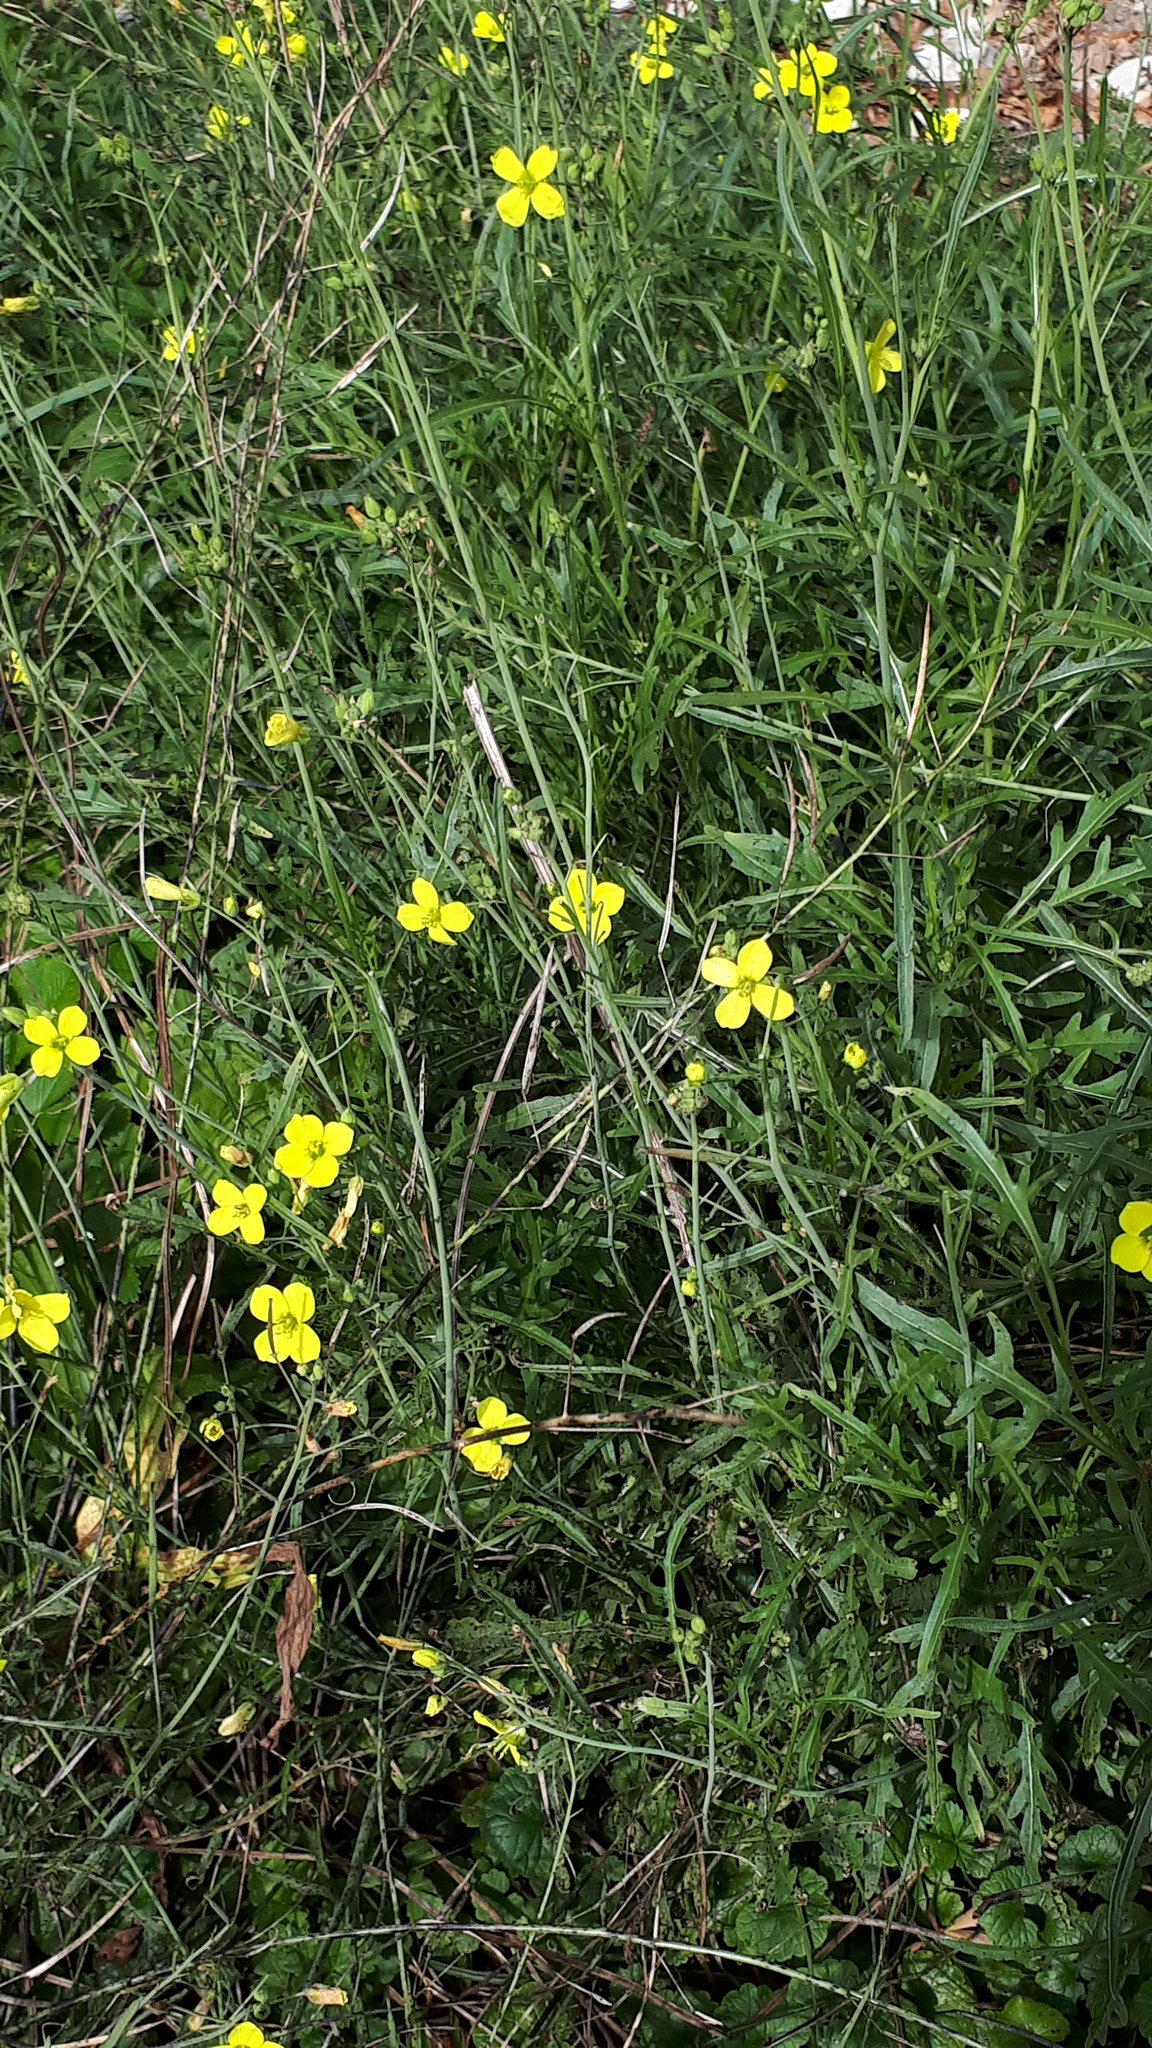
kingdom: Plantae
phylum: Tracheophyta
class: Magnoliopsida
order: Brassicales
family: Brassicaceae
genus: Diplotaxis
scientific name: Diplotaxis tenuifolia
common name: Perennial wall-rocket
